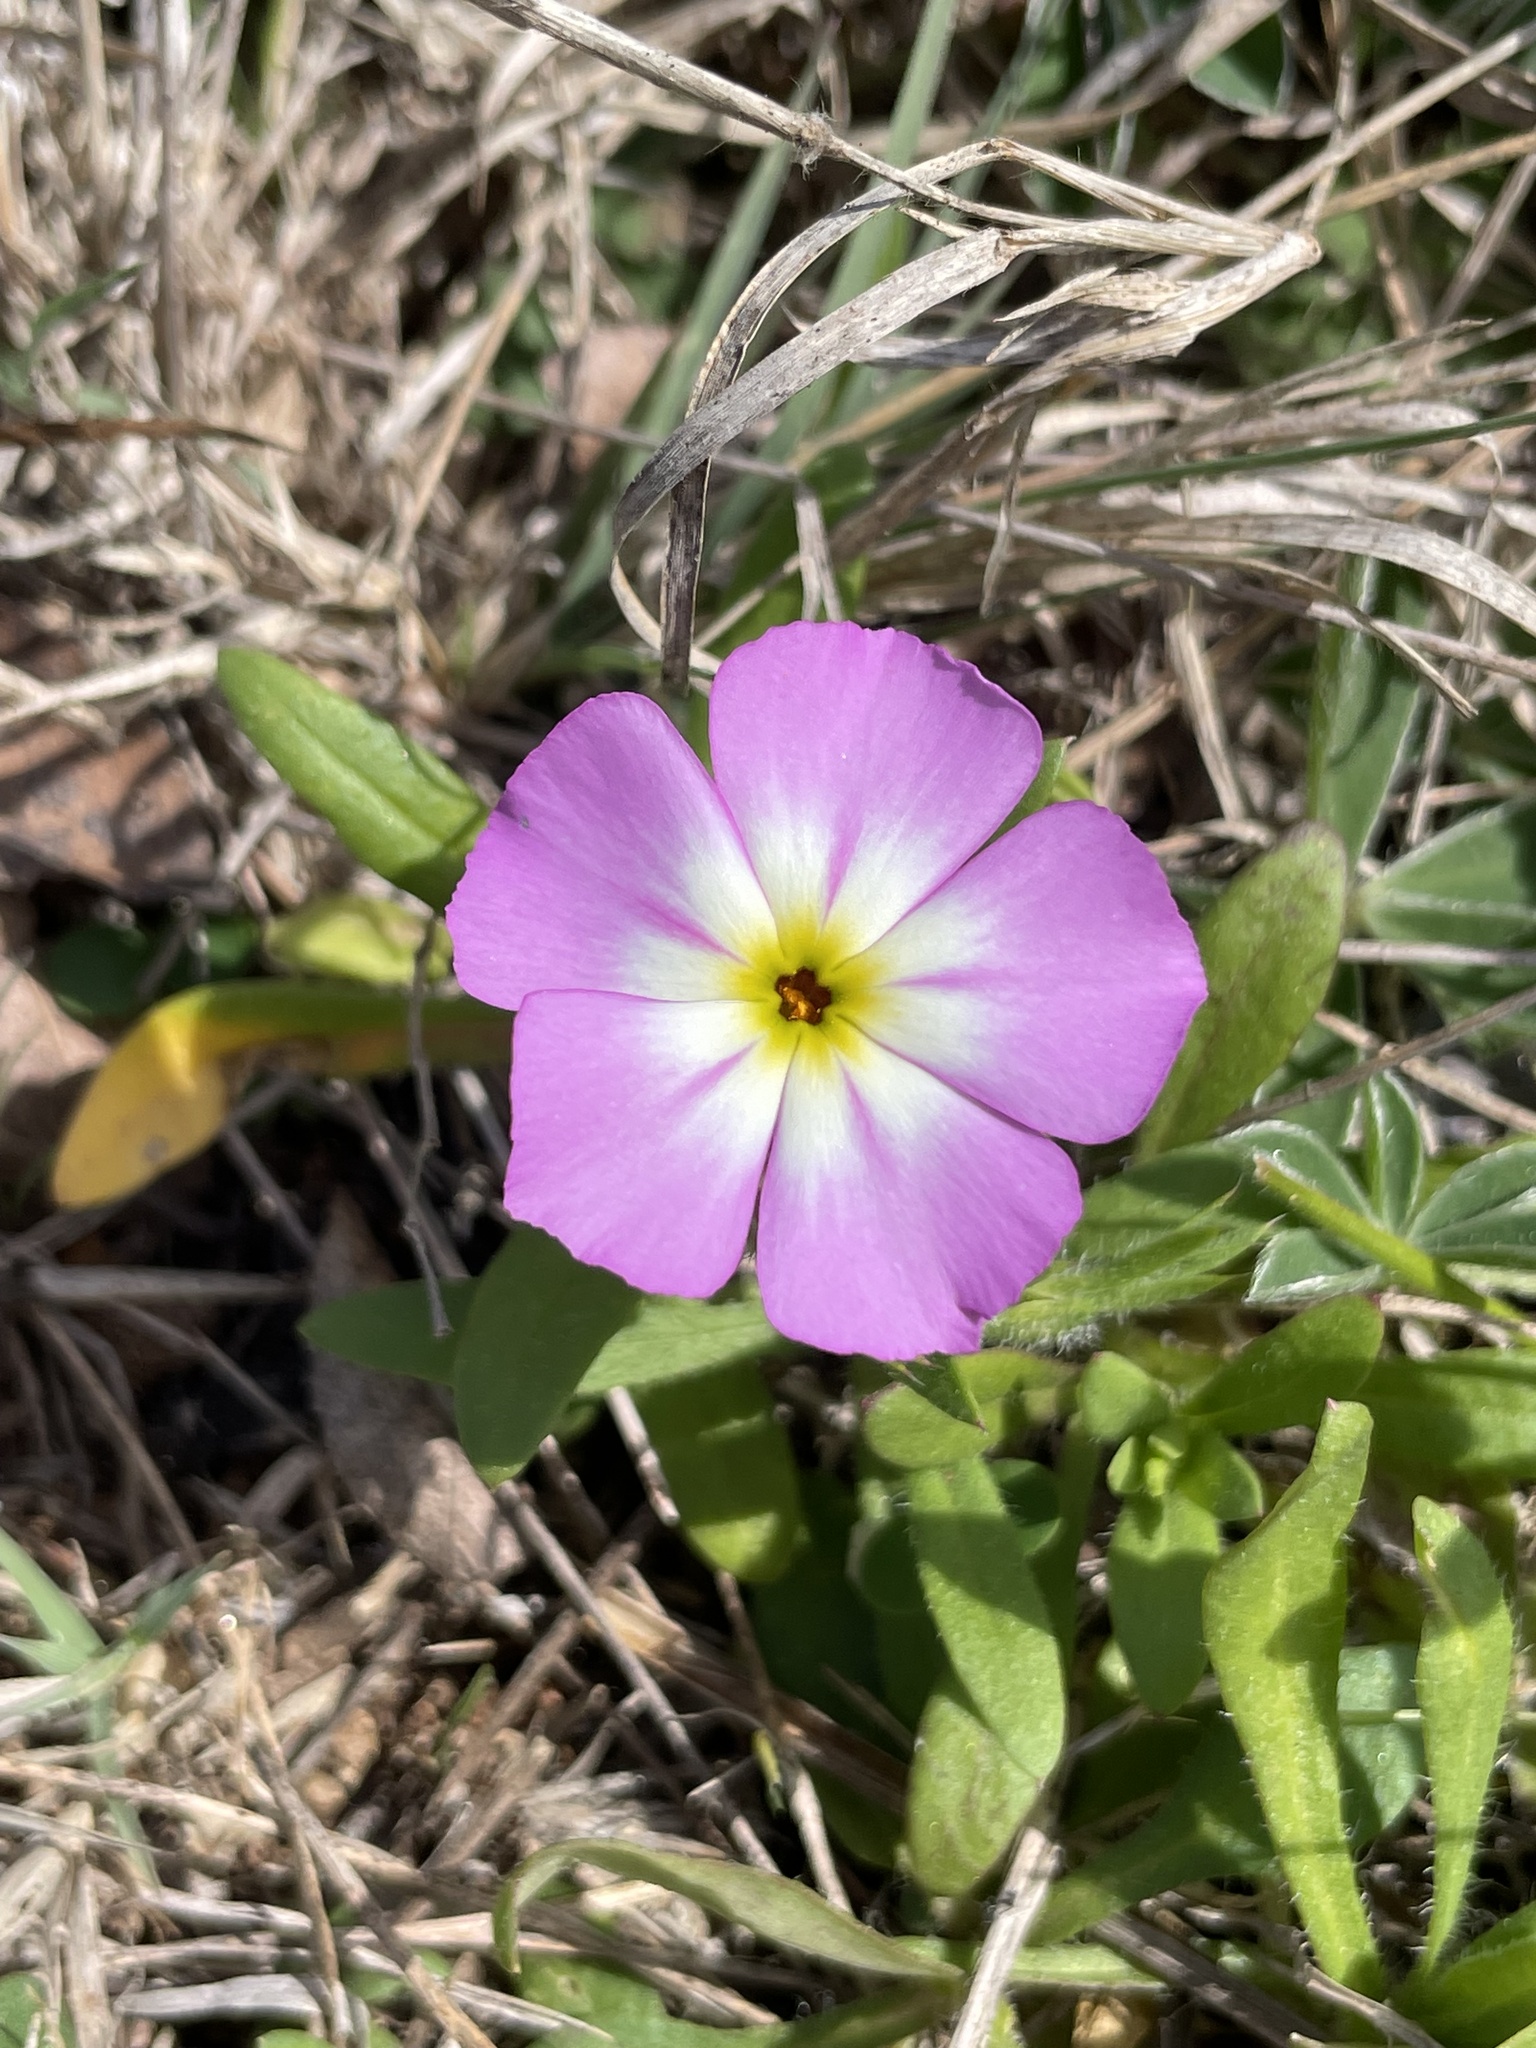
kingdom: Plantae
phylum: Tracheophyta
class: Magnoliopsida
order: Ericales
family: Polemoniaceae
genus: Phlox
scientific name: Phlox roemeriana
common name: Roemer's phlox
